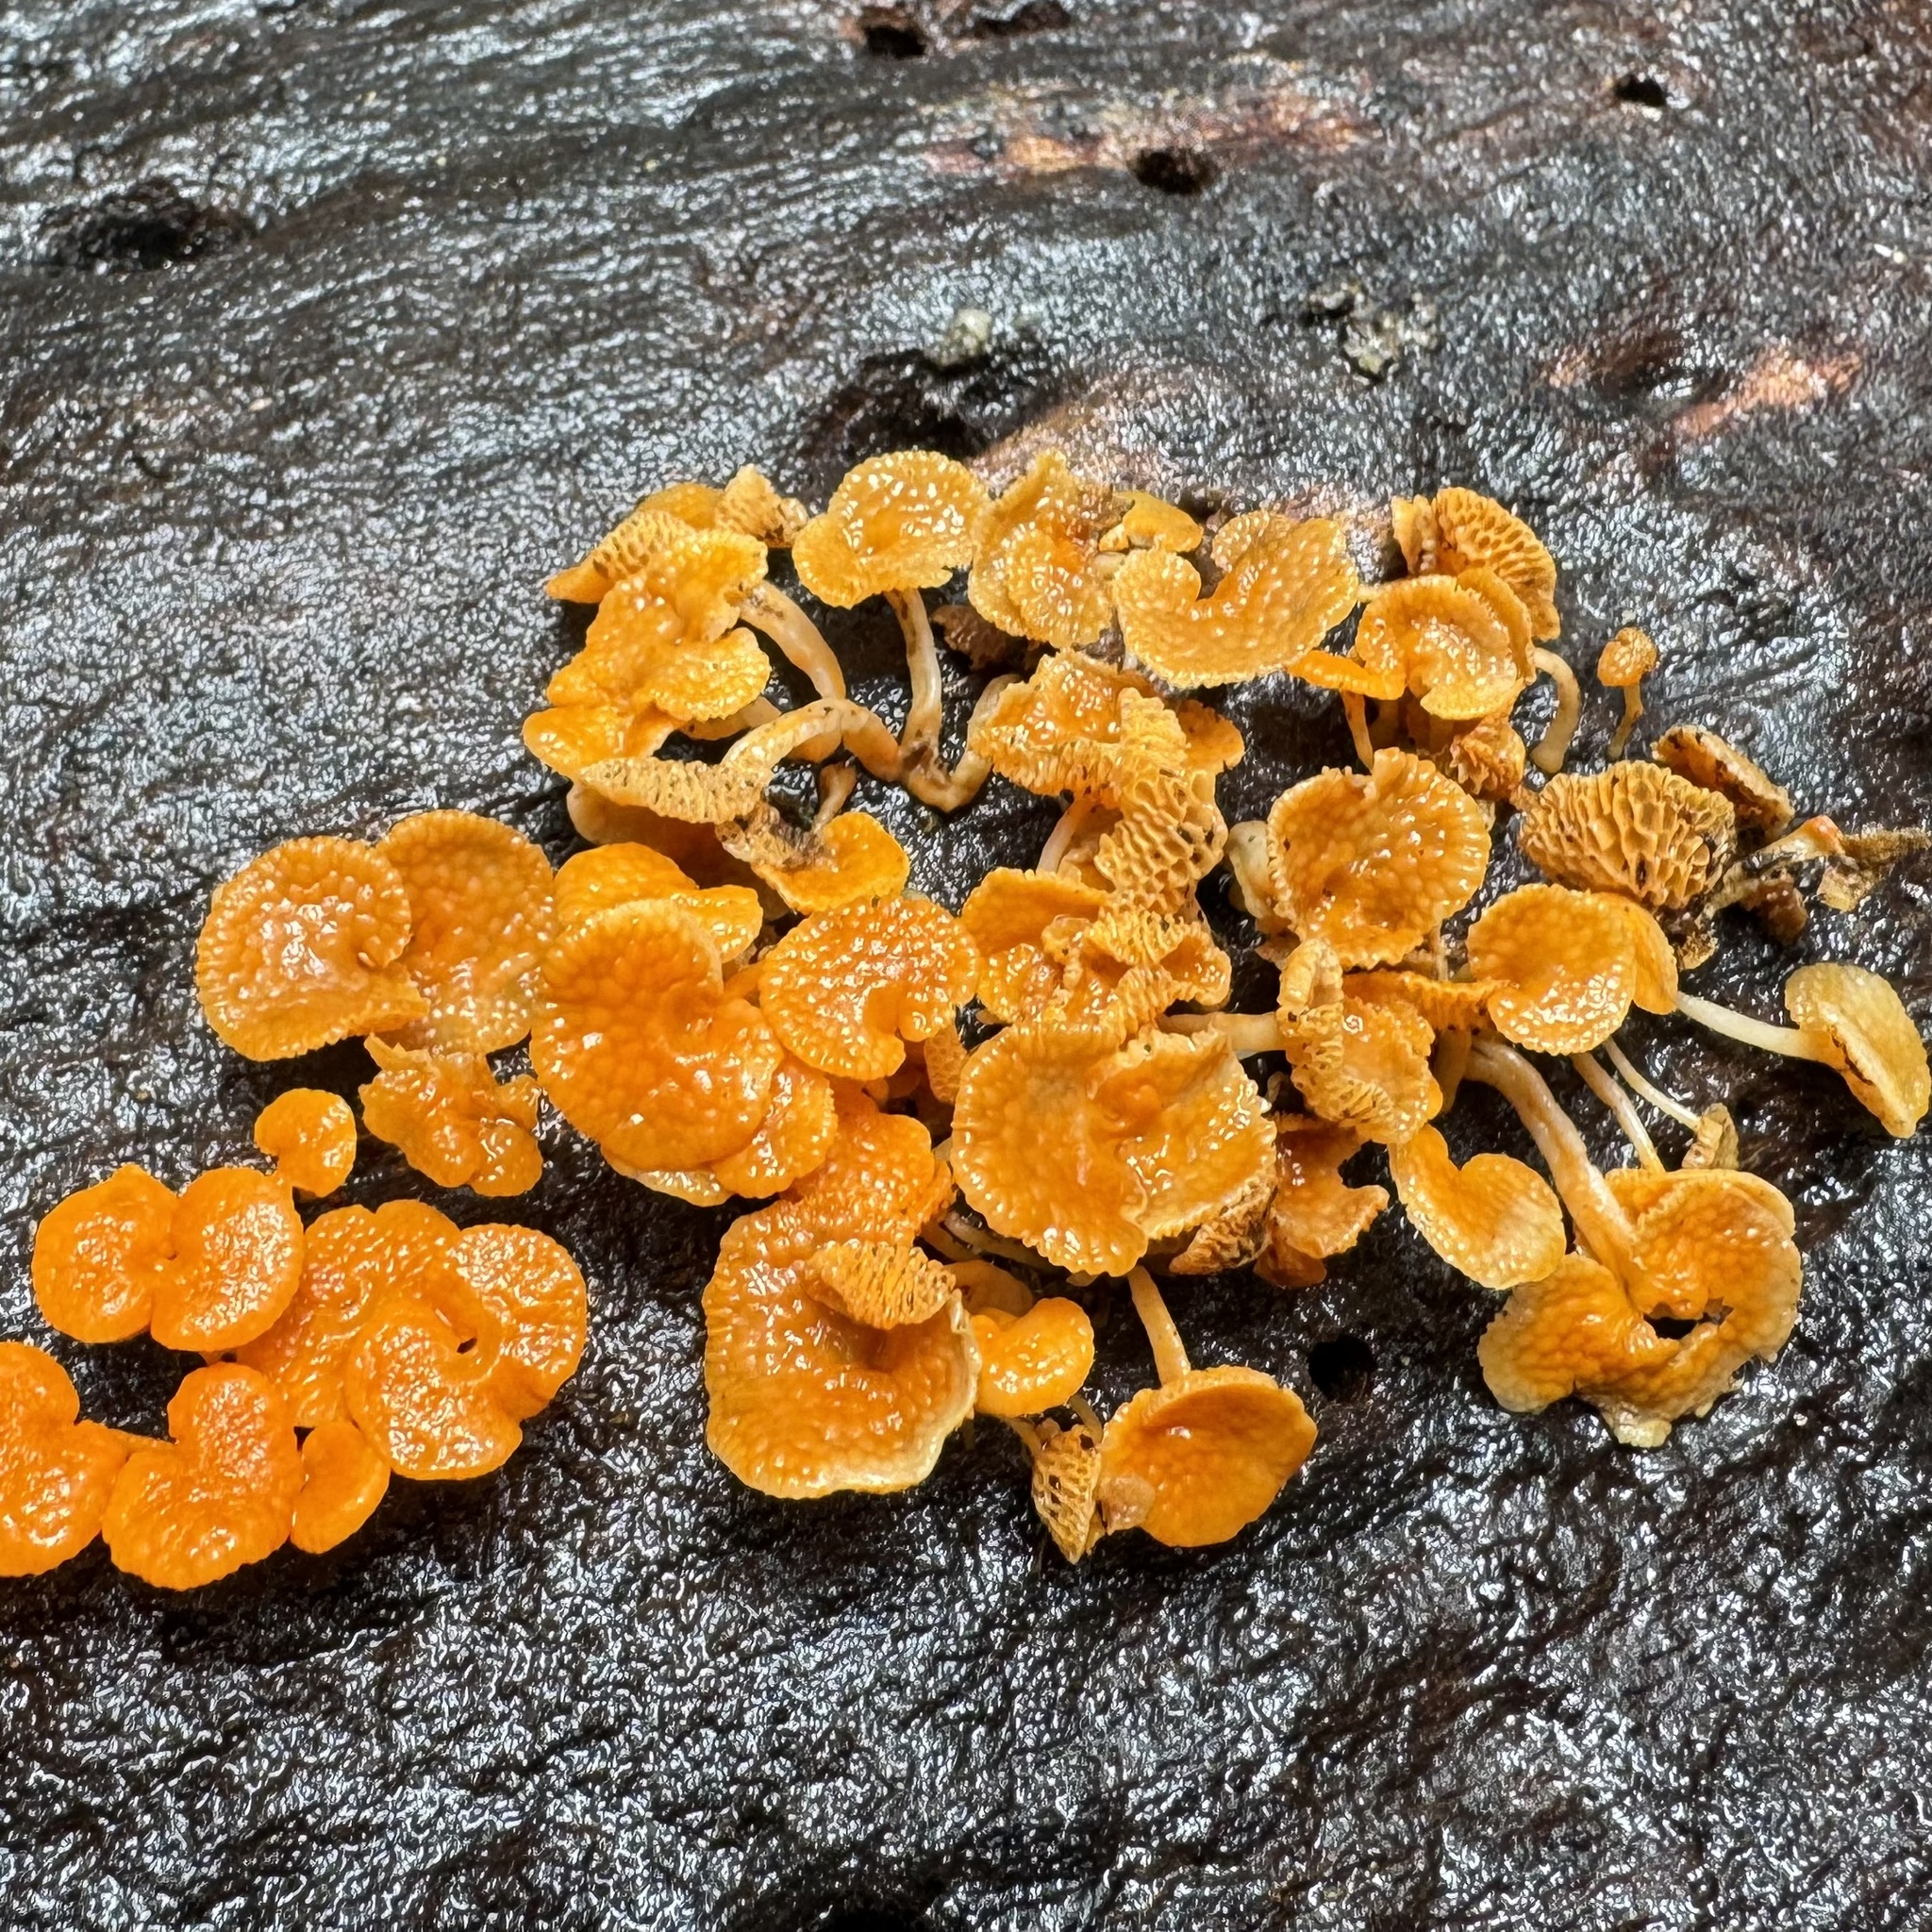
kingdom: Fungi
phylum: Basidiomycota
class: Agaricomycetes
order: Agaricales
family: Mycenaceae
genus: Favolaschia
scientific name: Favolaschia claudopus
